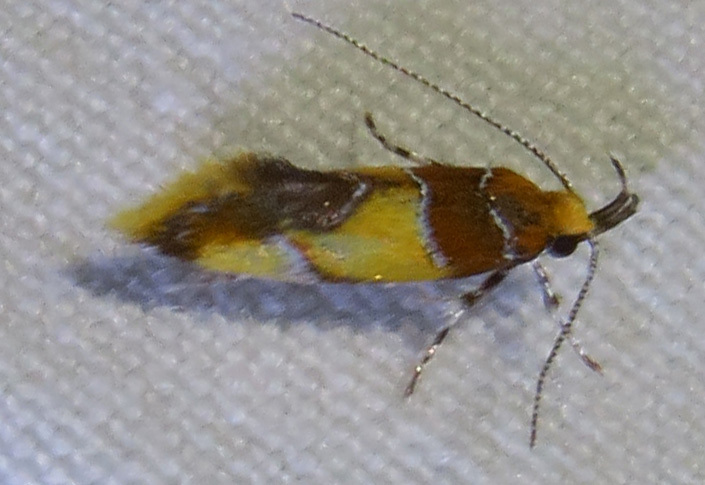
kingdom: Animalia
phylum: Arthropoda
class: Insecta
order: Lepidoptera
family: Oecophoridae
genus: Callima
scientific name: Callima argenticinctella
